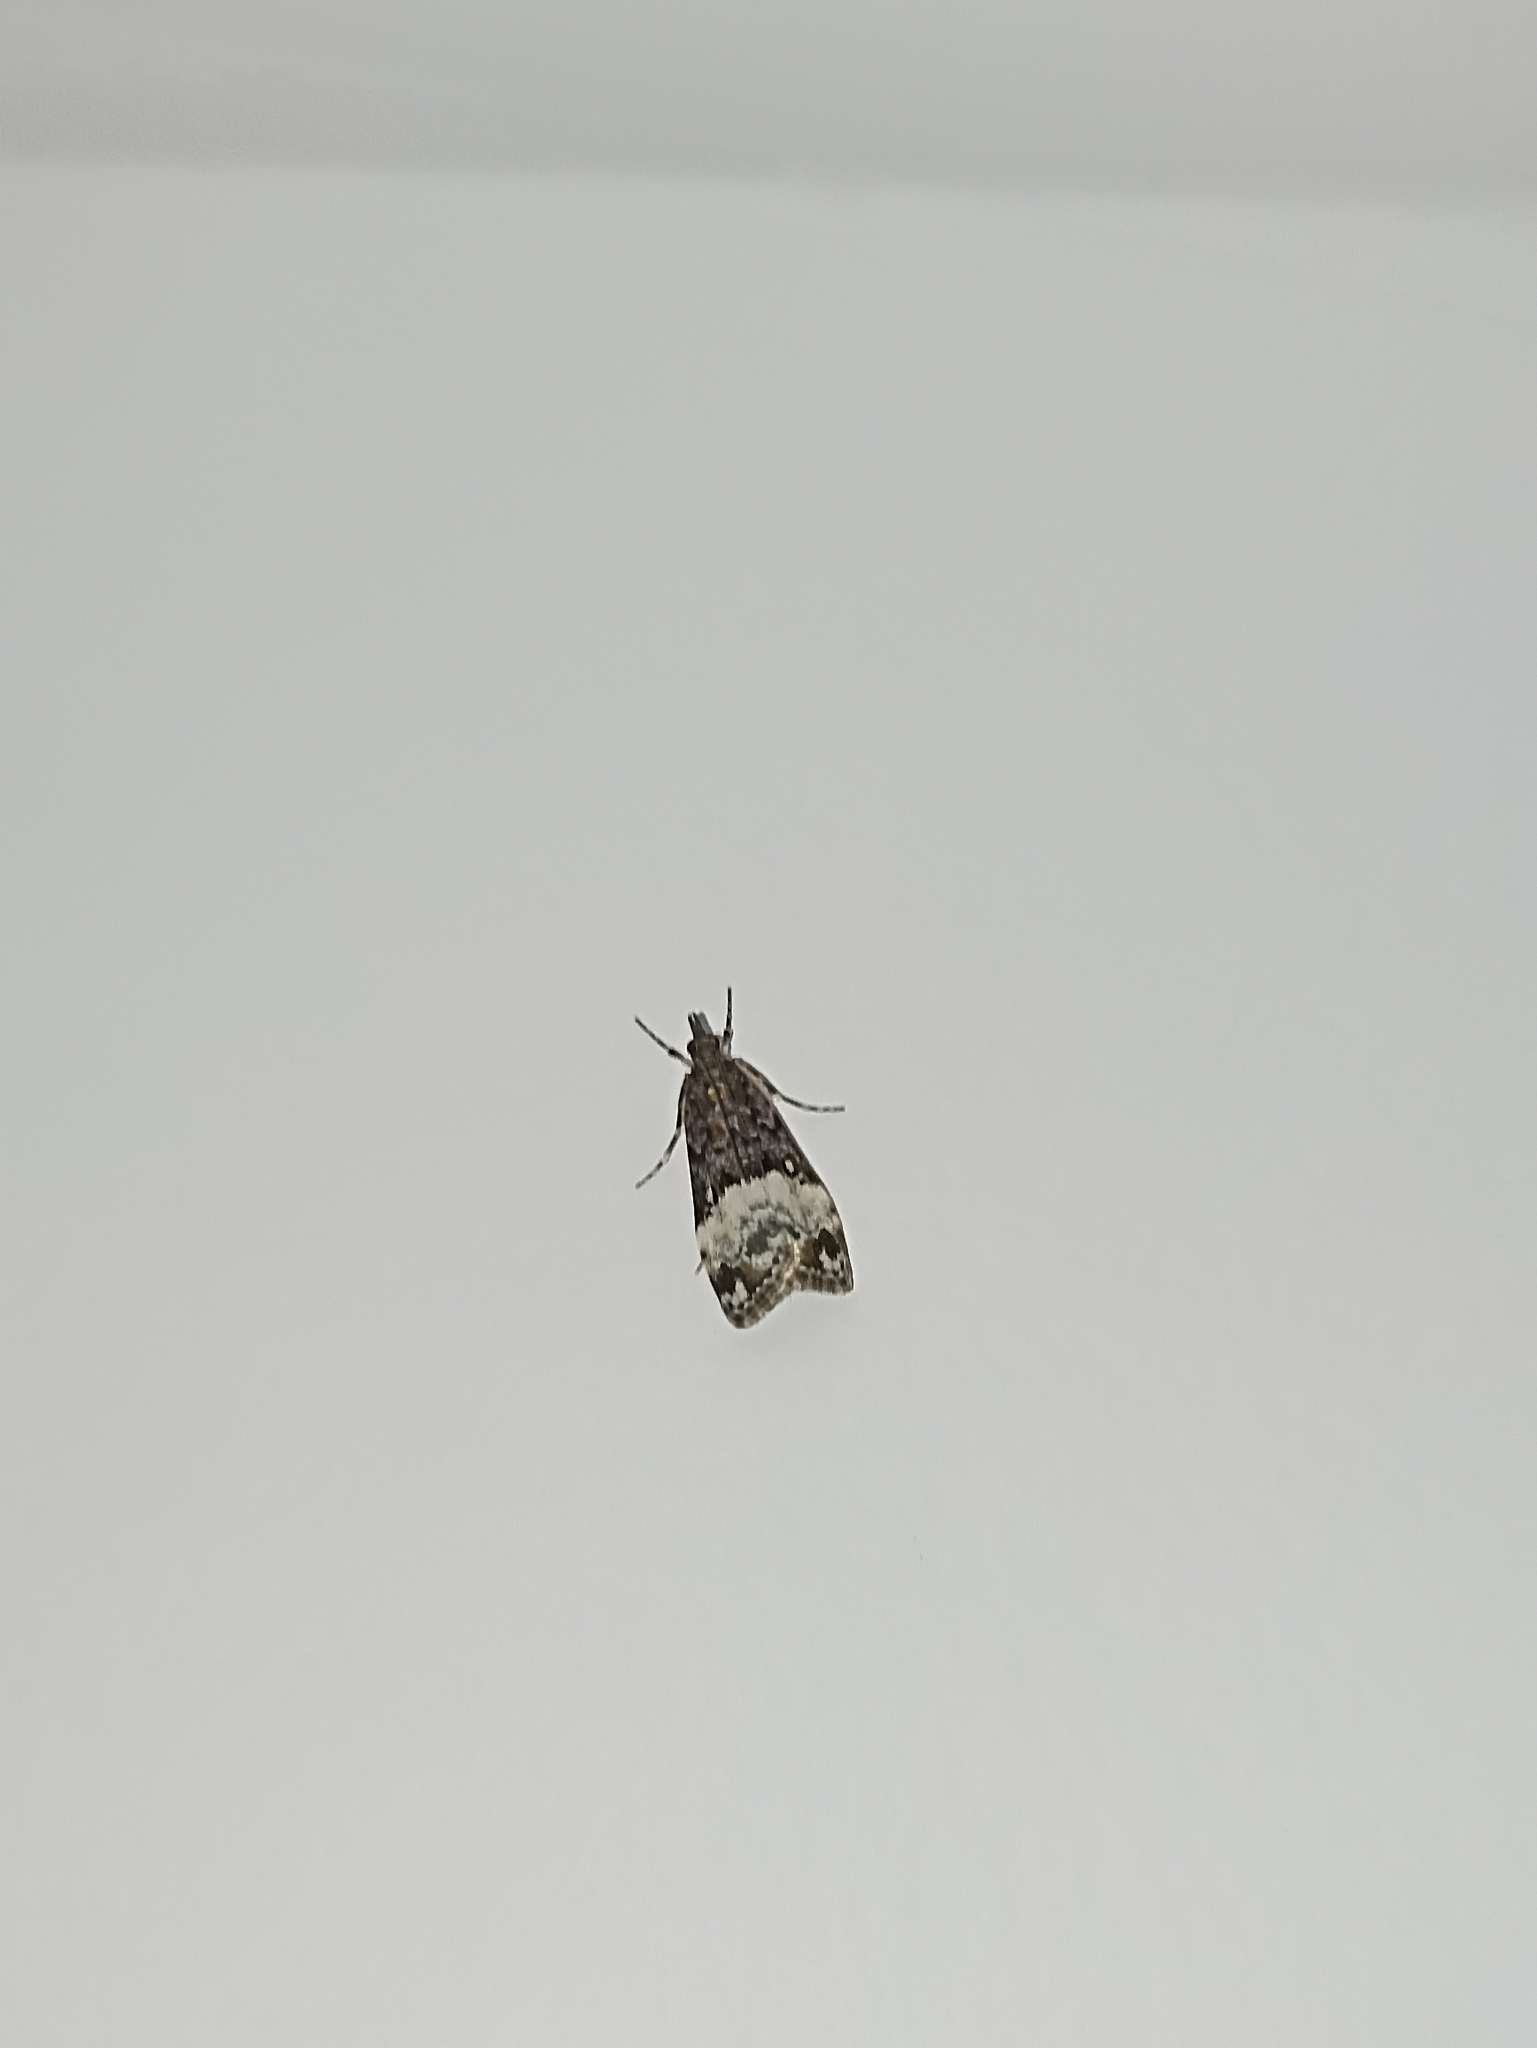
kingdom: Animalia
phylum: Arthropoda
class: Insecta
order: Lepidoptera
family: Crambidae
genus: Scoparia
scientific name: Scoparia minusculalis
